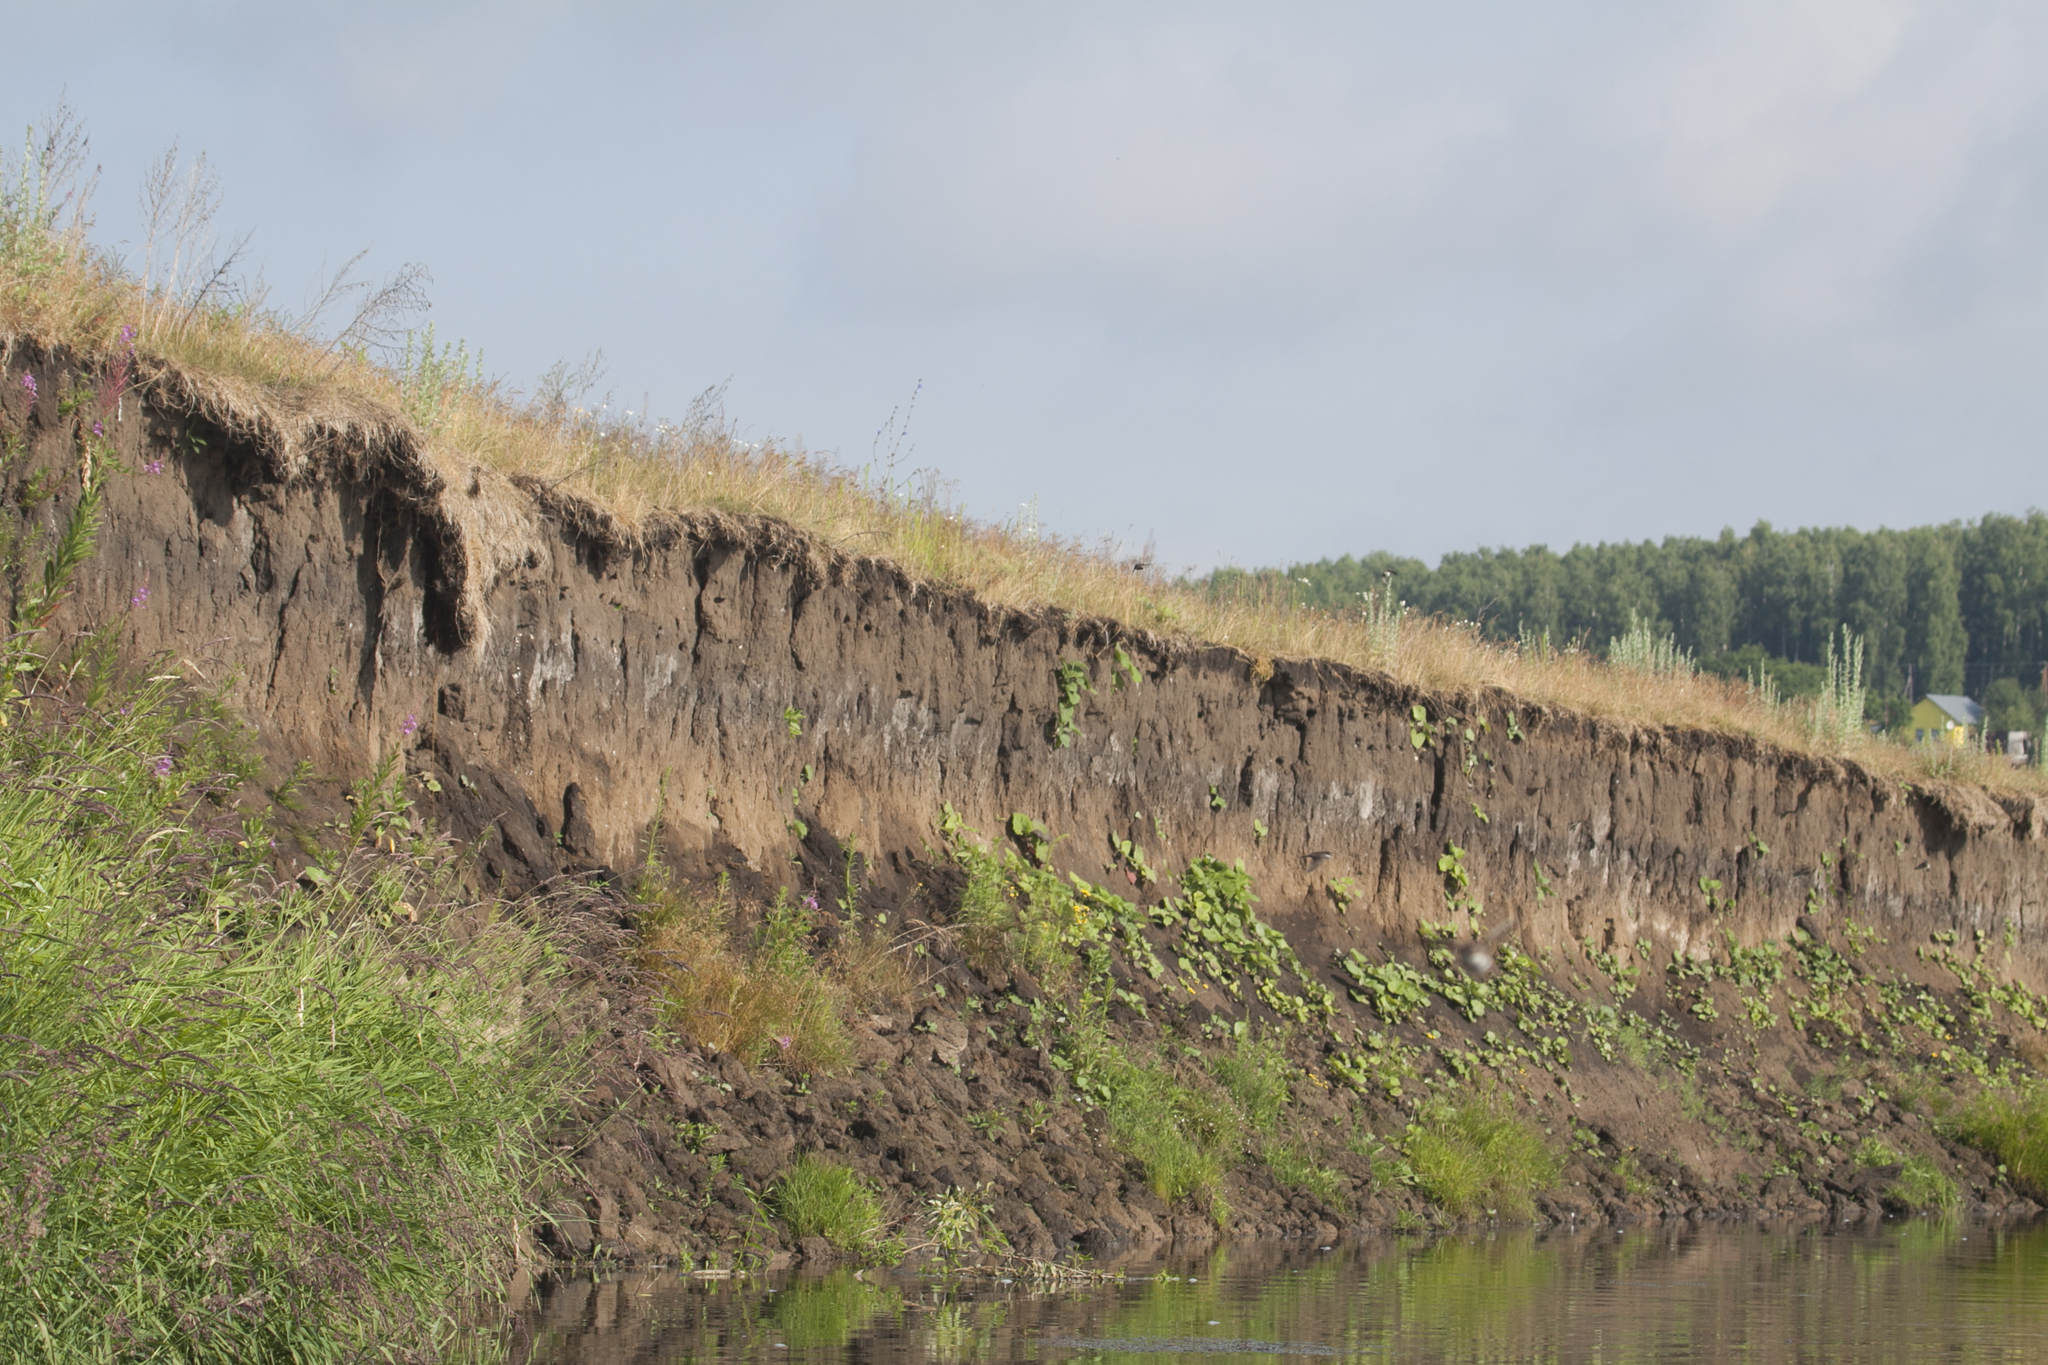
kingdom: Animalia
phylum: Chordata
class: Aves
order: Passeriformes
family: Hirundinidae
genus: Riparia
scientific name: Riparia riparia
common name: Sand martin
